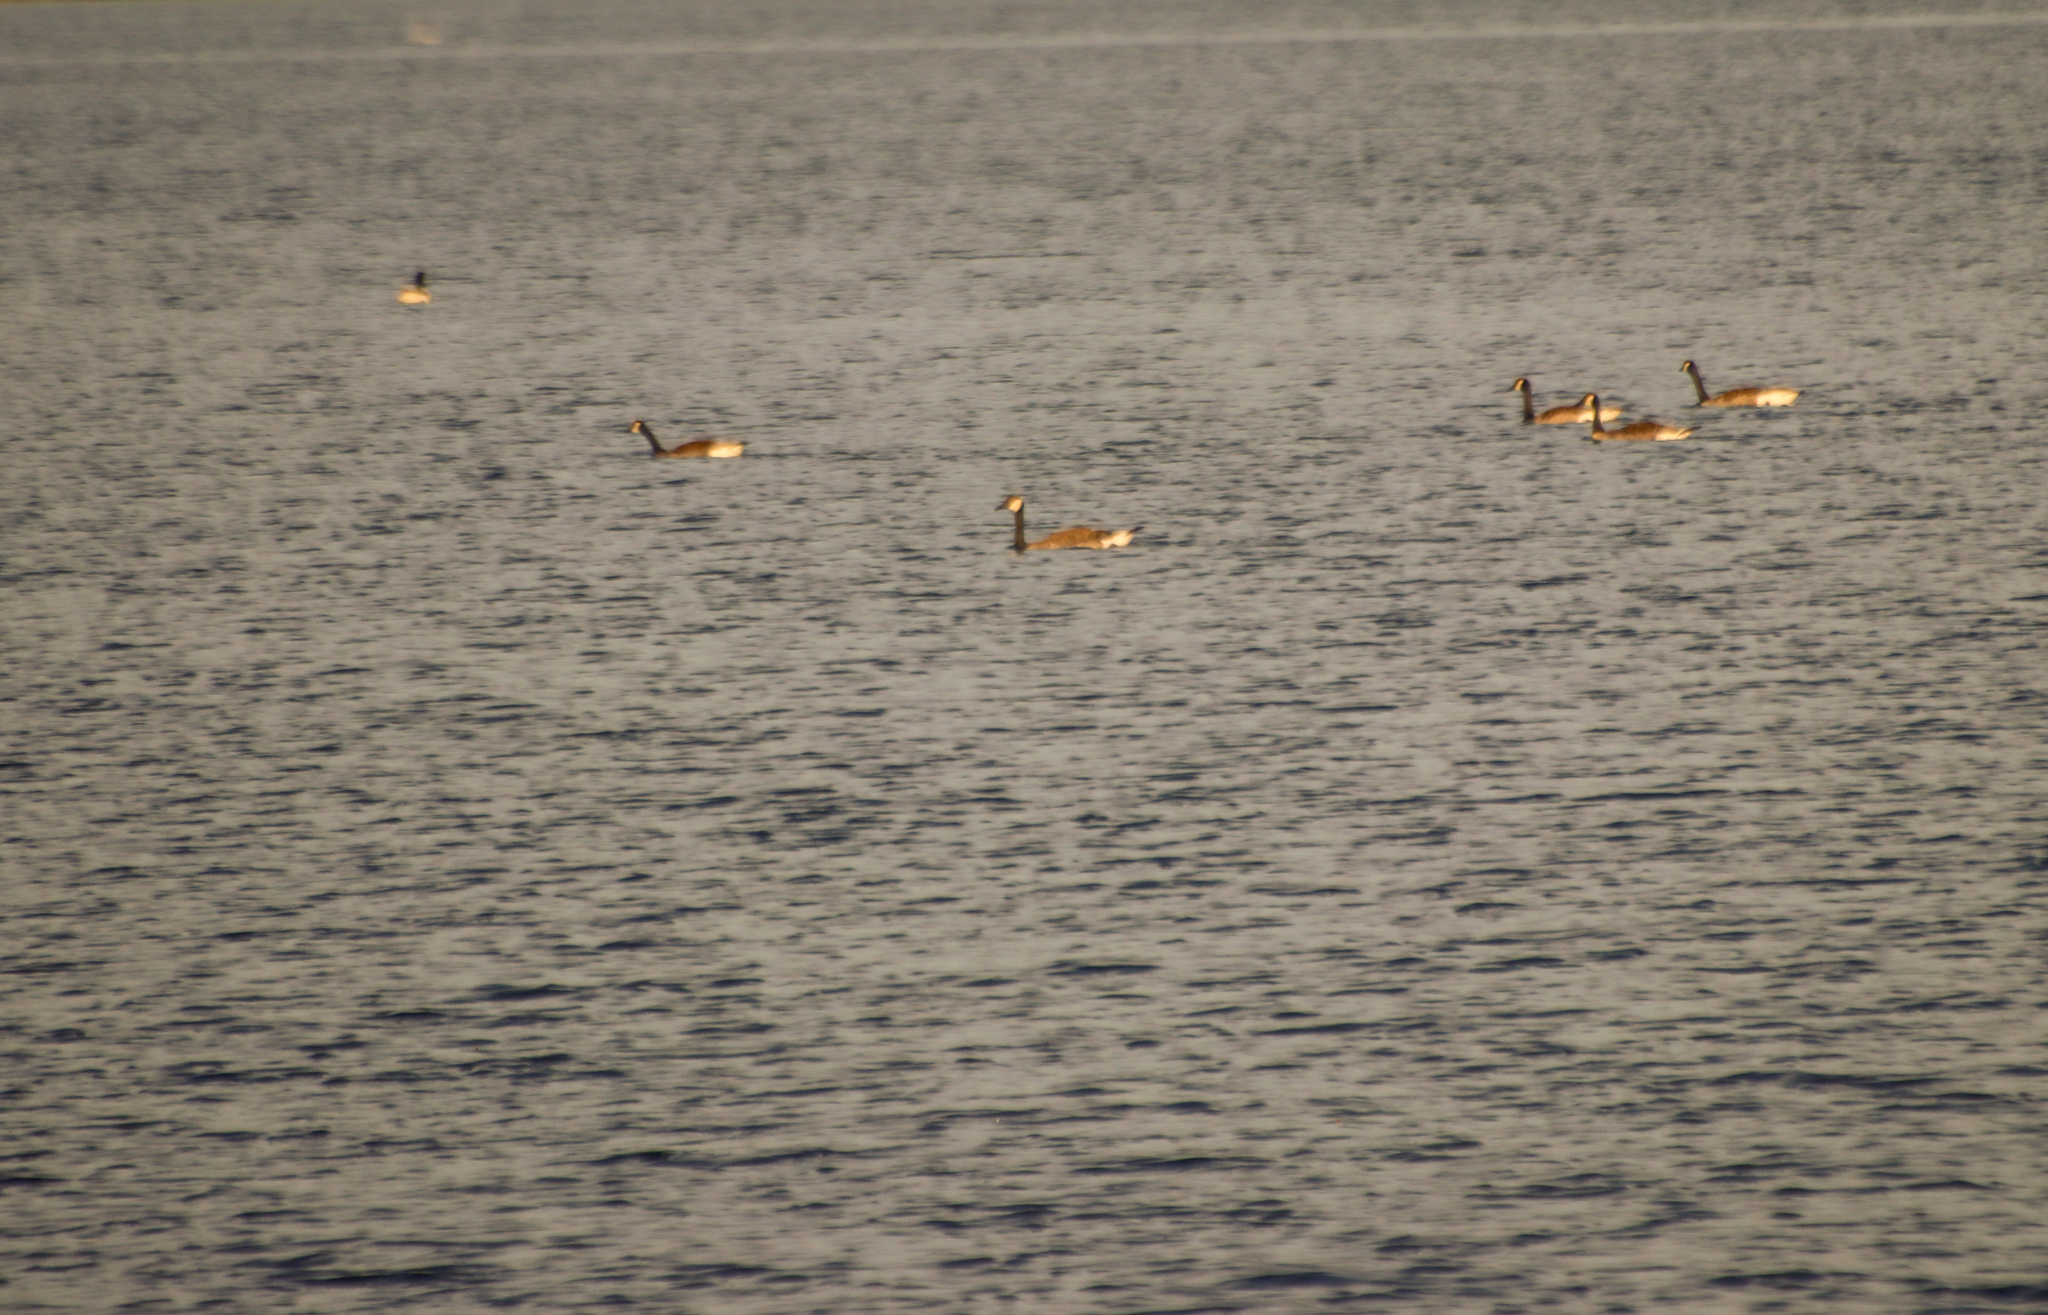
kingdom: Animalia
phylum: Chordata
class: Aves
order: Anseriformes
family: Anatidae
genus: Branta
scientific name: Branta canadensis
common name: Canada goose
